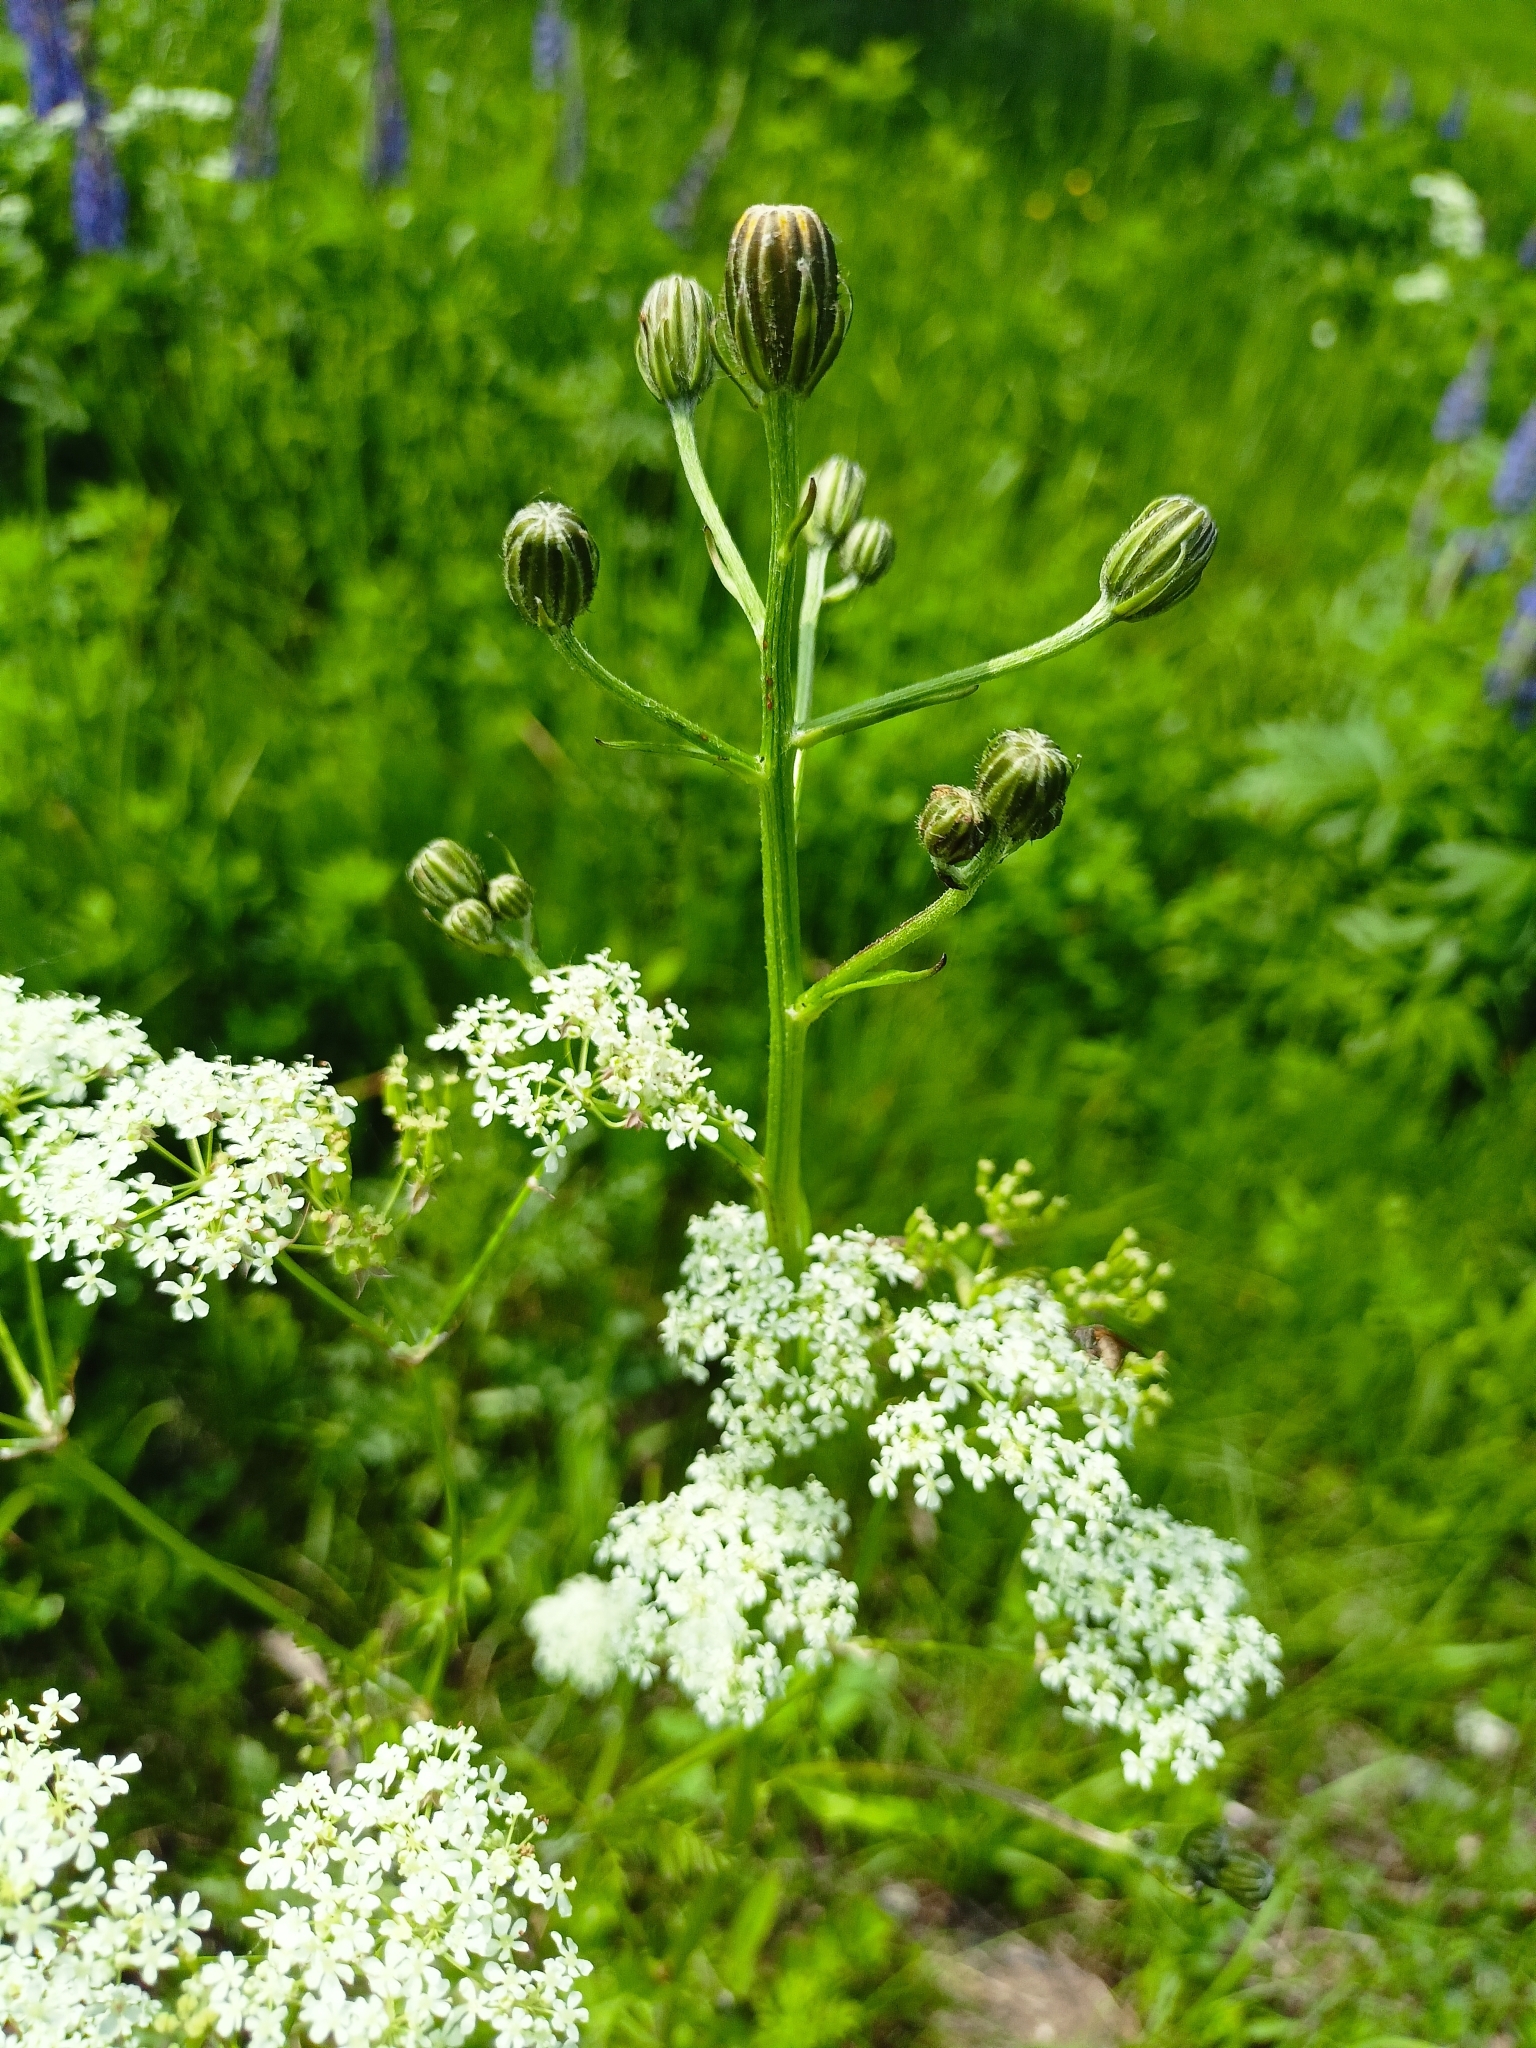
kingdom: Plantae
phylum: Tracheophyta
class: Magnoliopsida
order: Apiales
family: Apiaceae
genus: Anthriscus
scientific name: Anthriscus sylvestris
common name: Cow parsley
